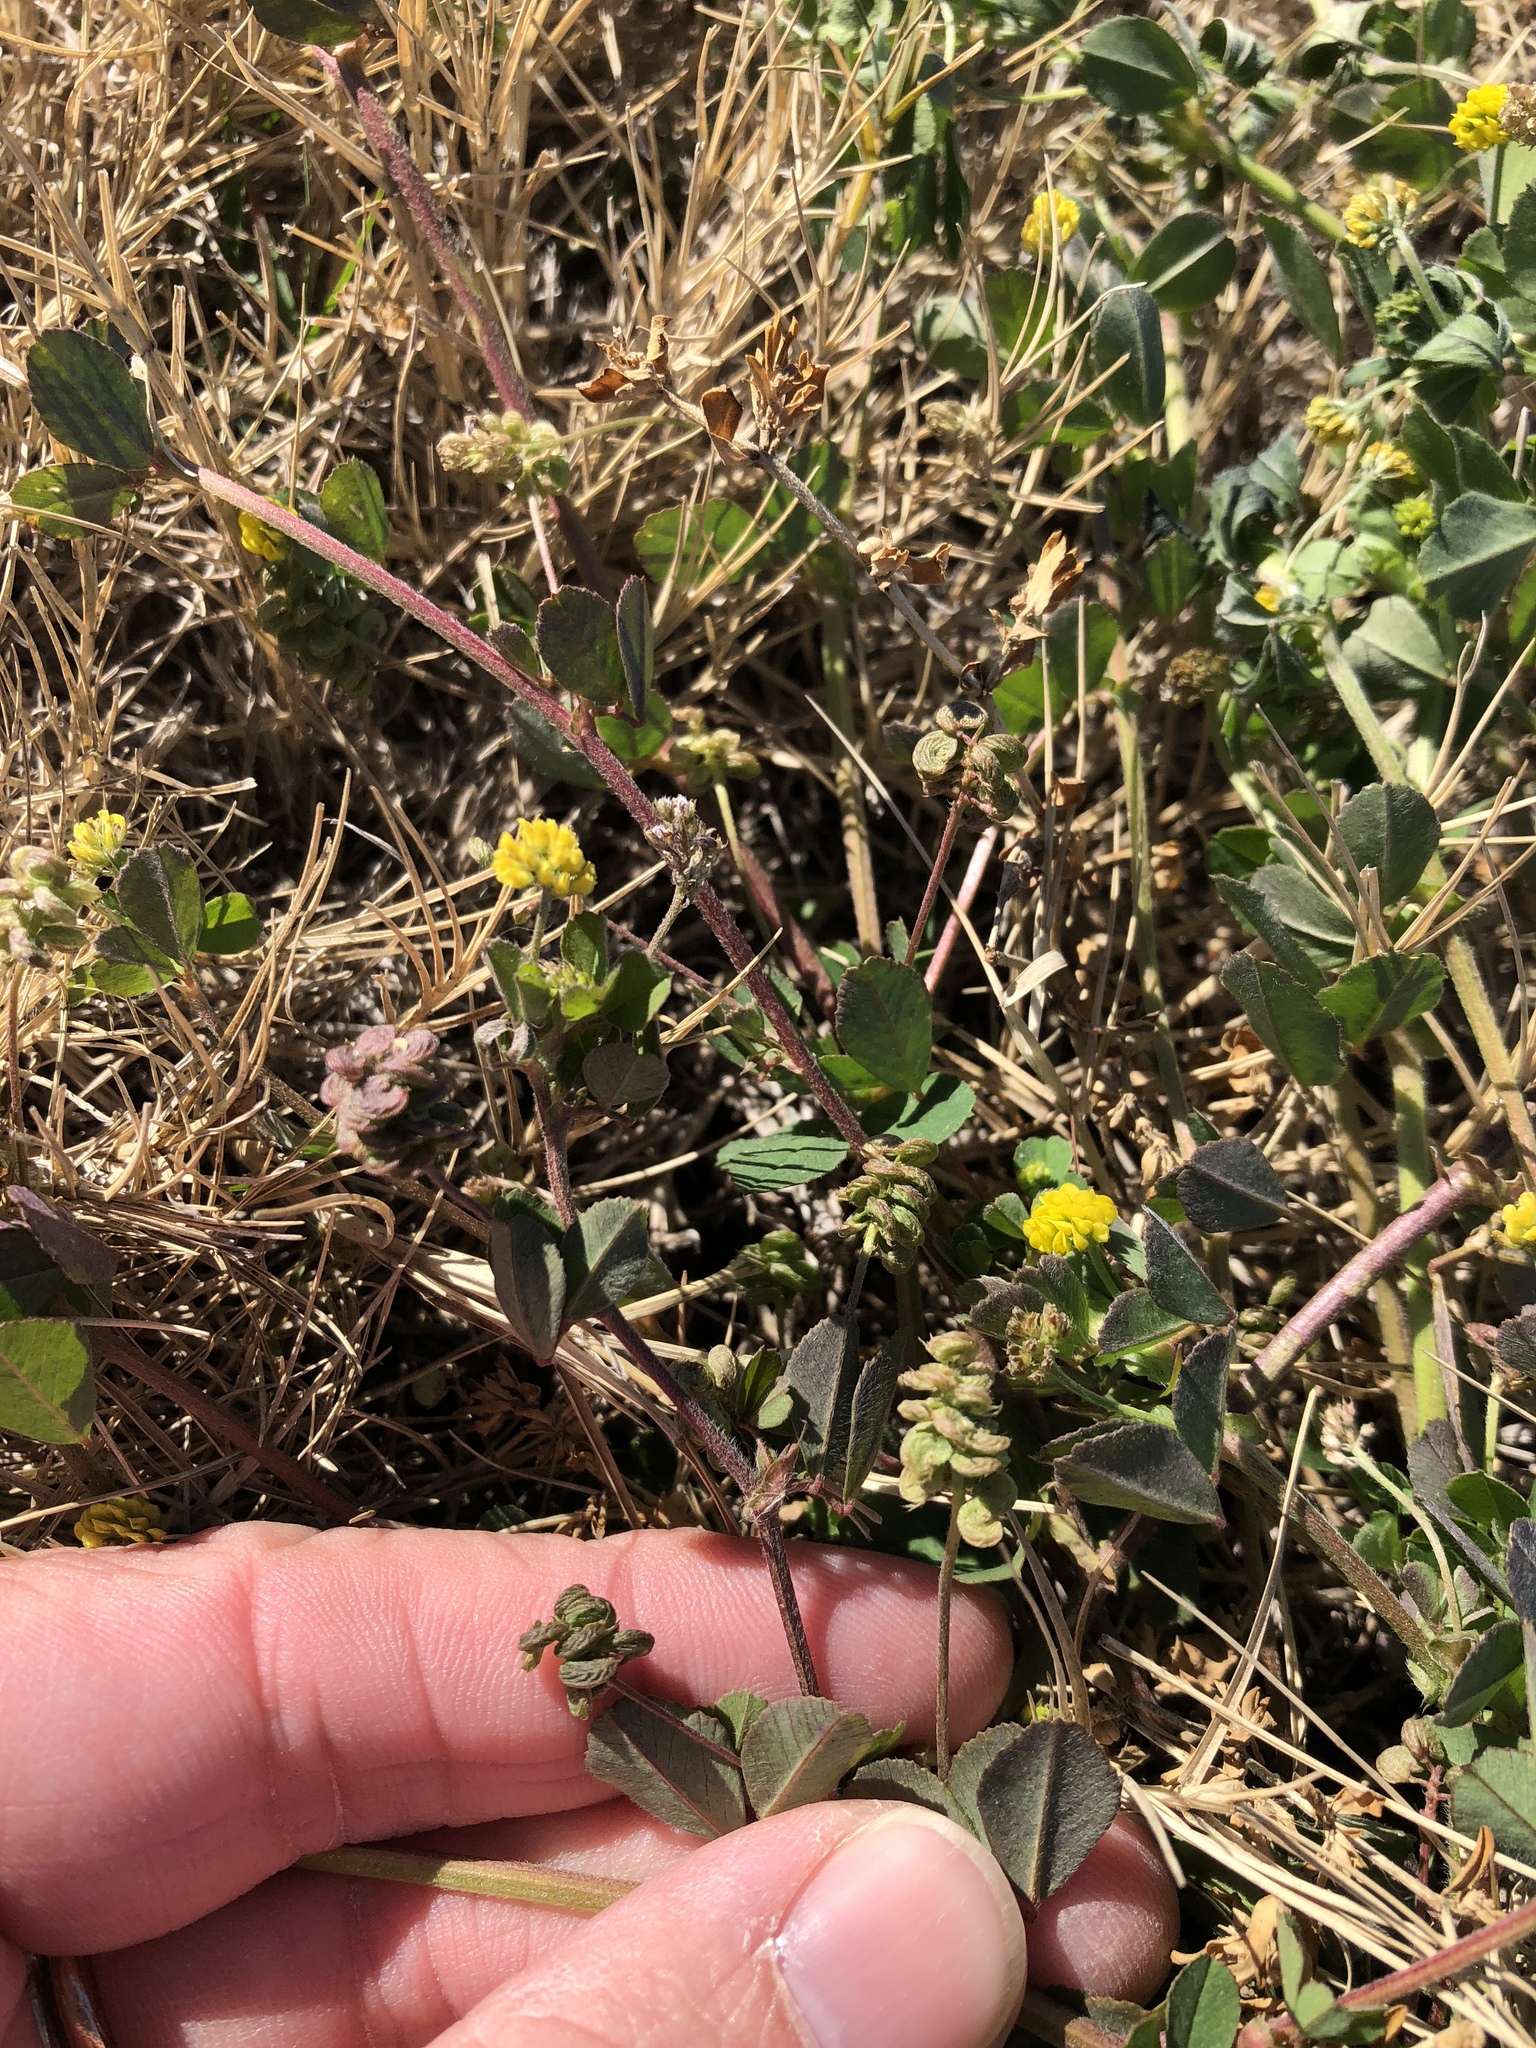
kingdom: Plantae
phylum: Tracheophyta
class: Magnoliopsida
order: Fabales
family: Fabaceae
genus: Medicago
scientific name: Medicago lupulina
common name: Black medick
